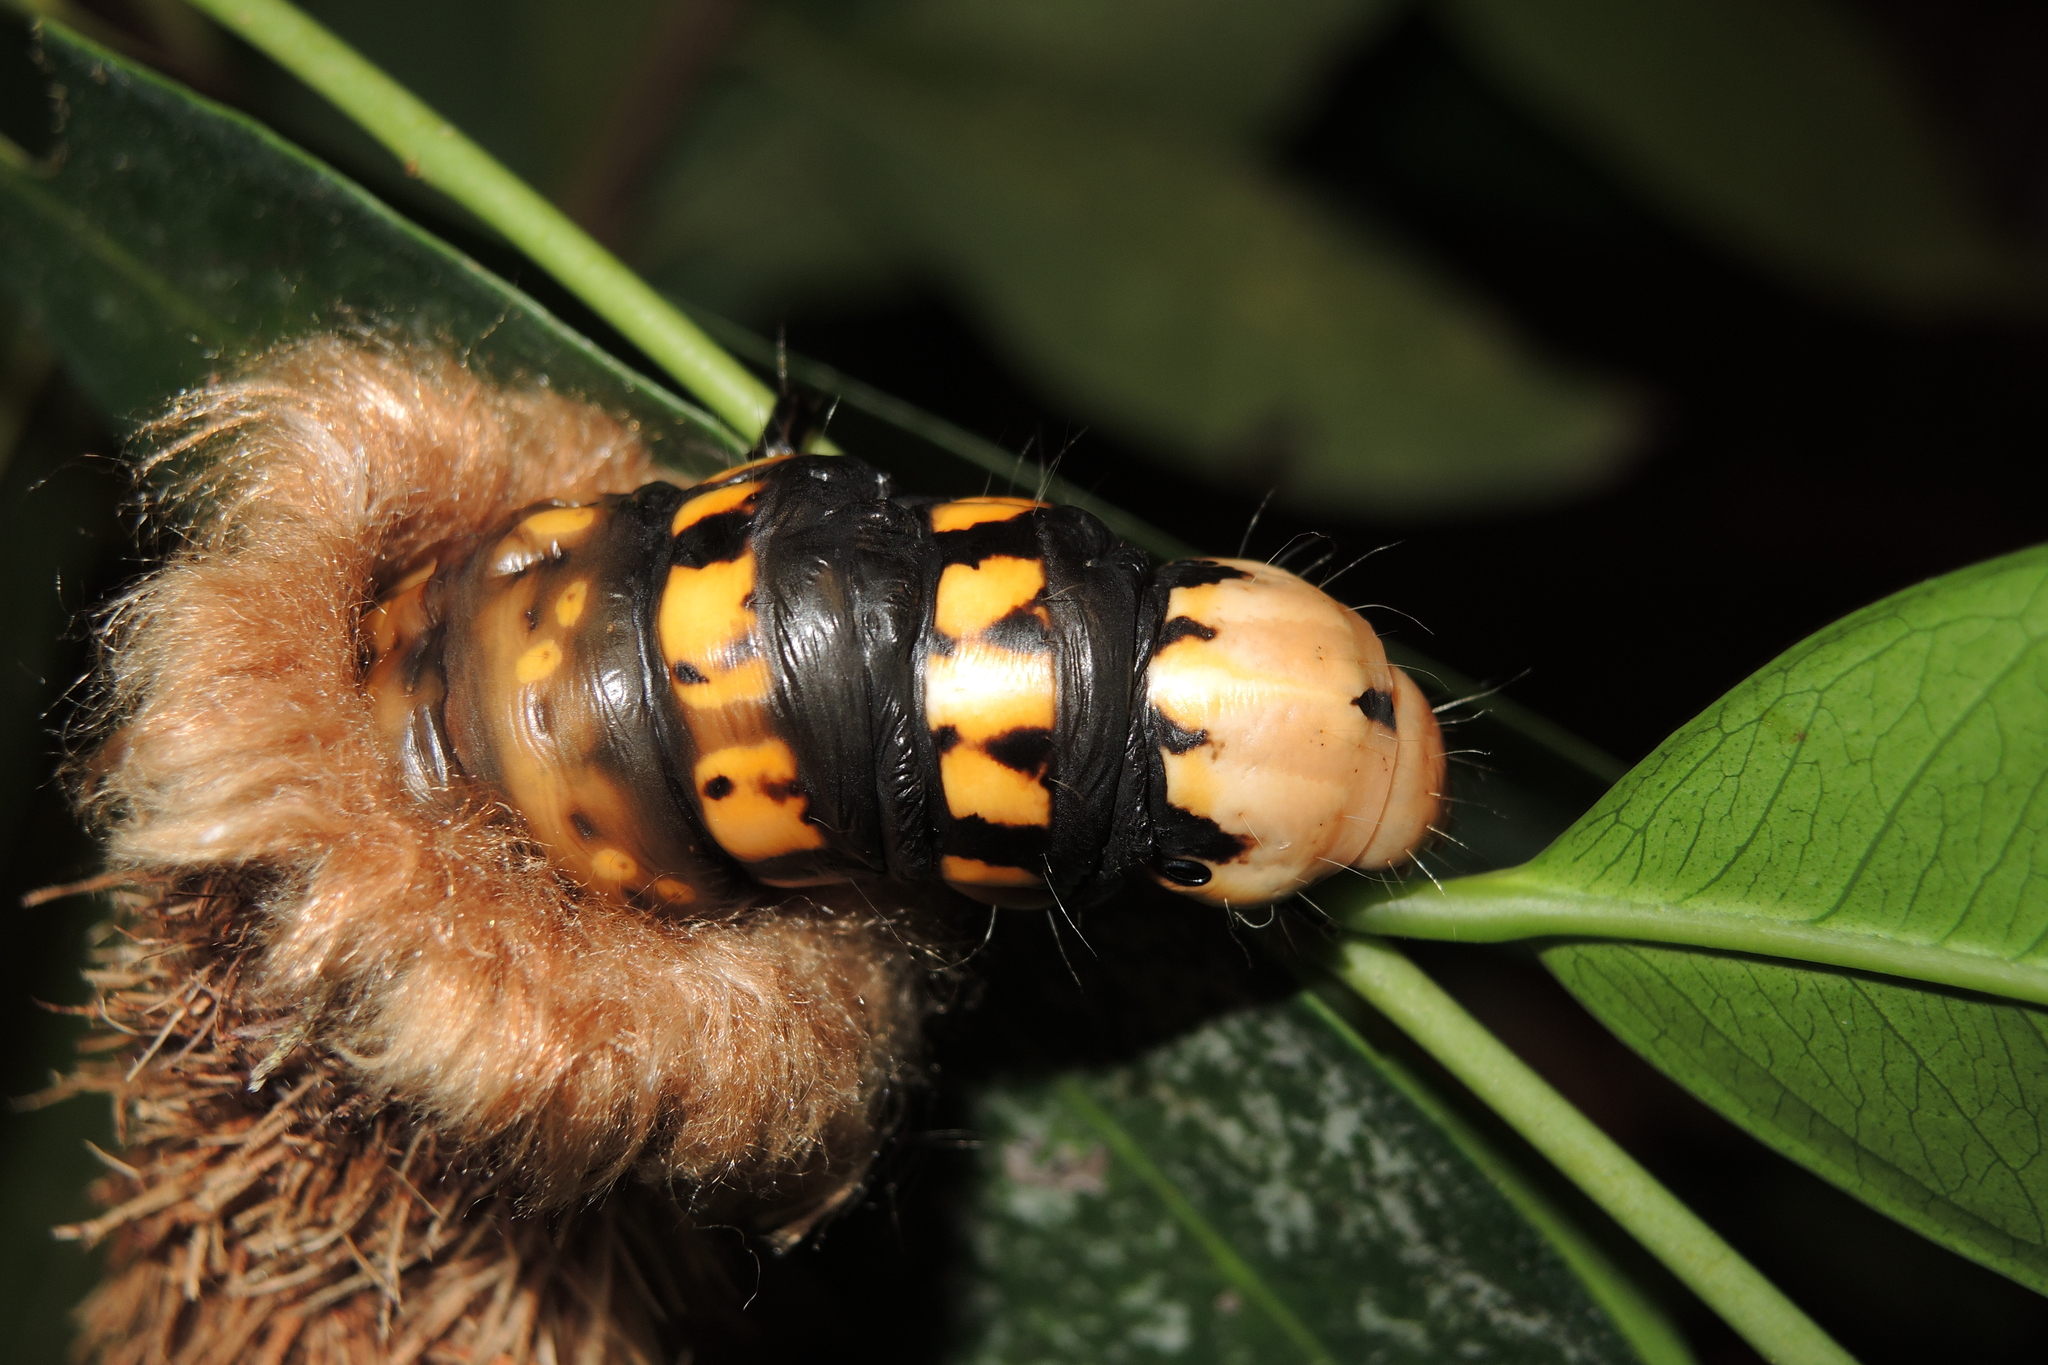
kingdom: Animalia
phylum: Arthropoda
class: Insecta
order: Lepidoptera
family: Psychidae
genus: Metura
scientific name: Metura aristocosma
